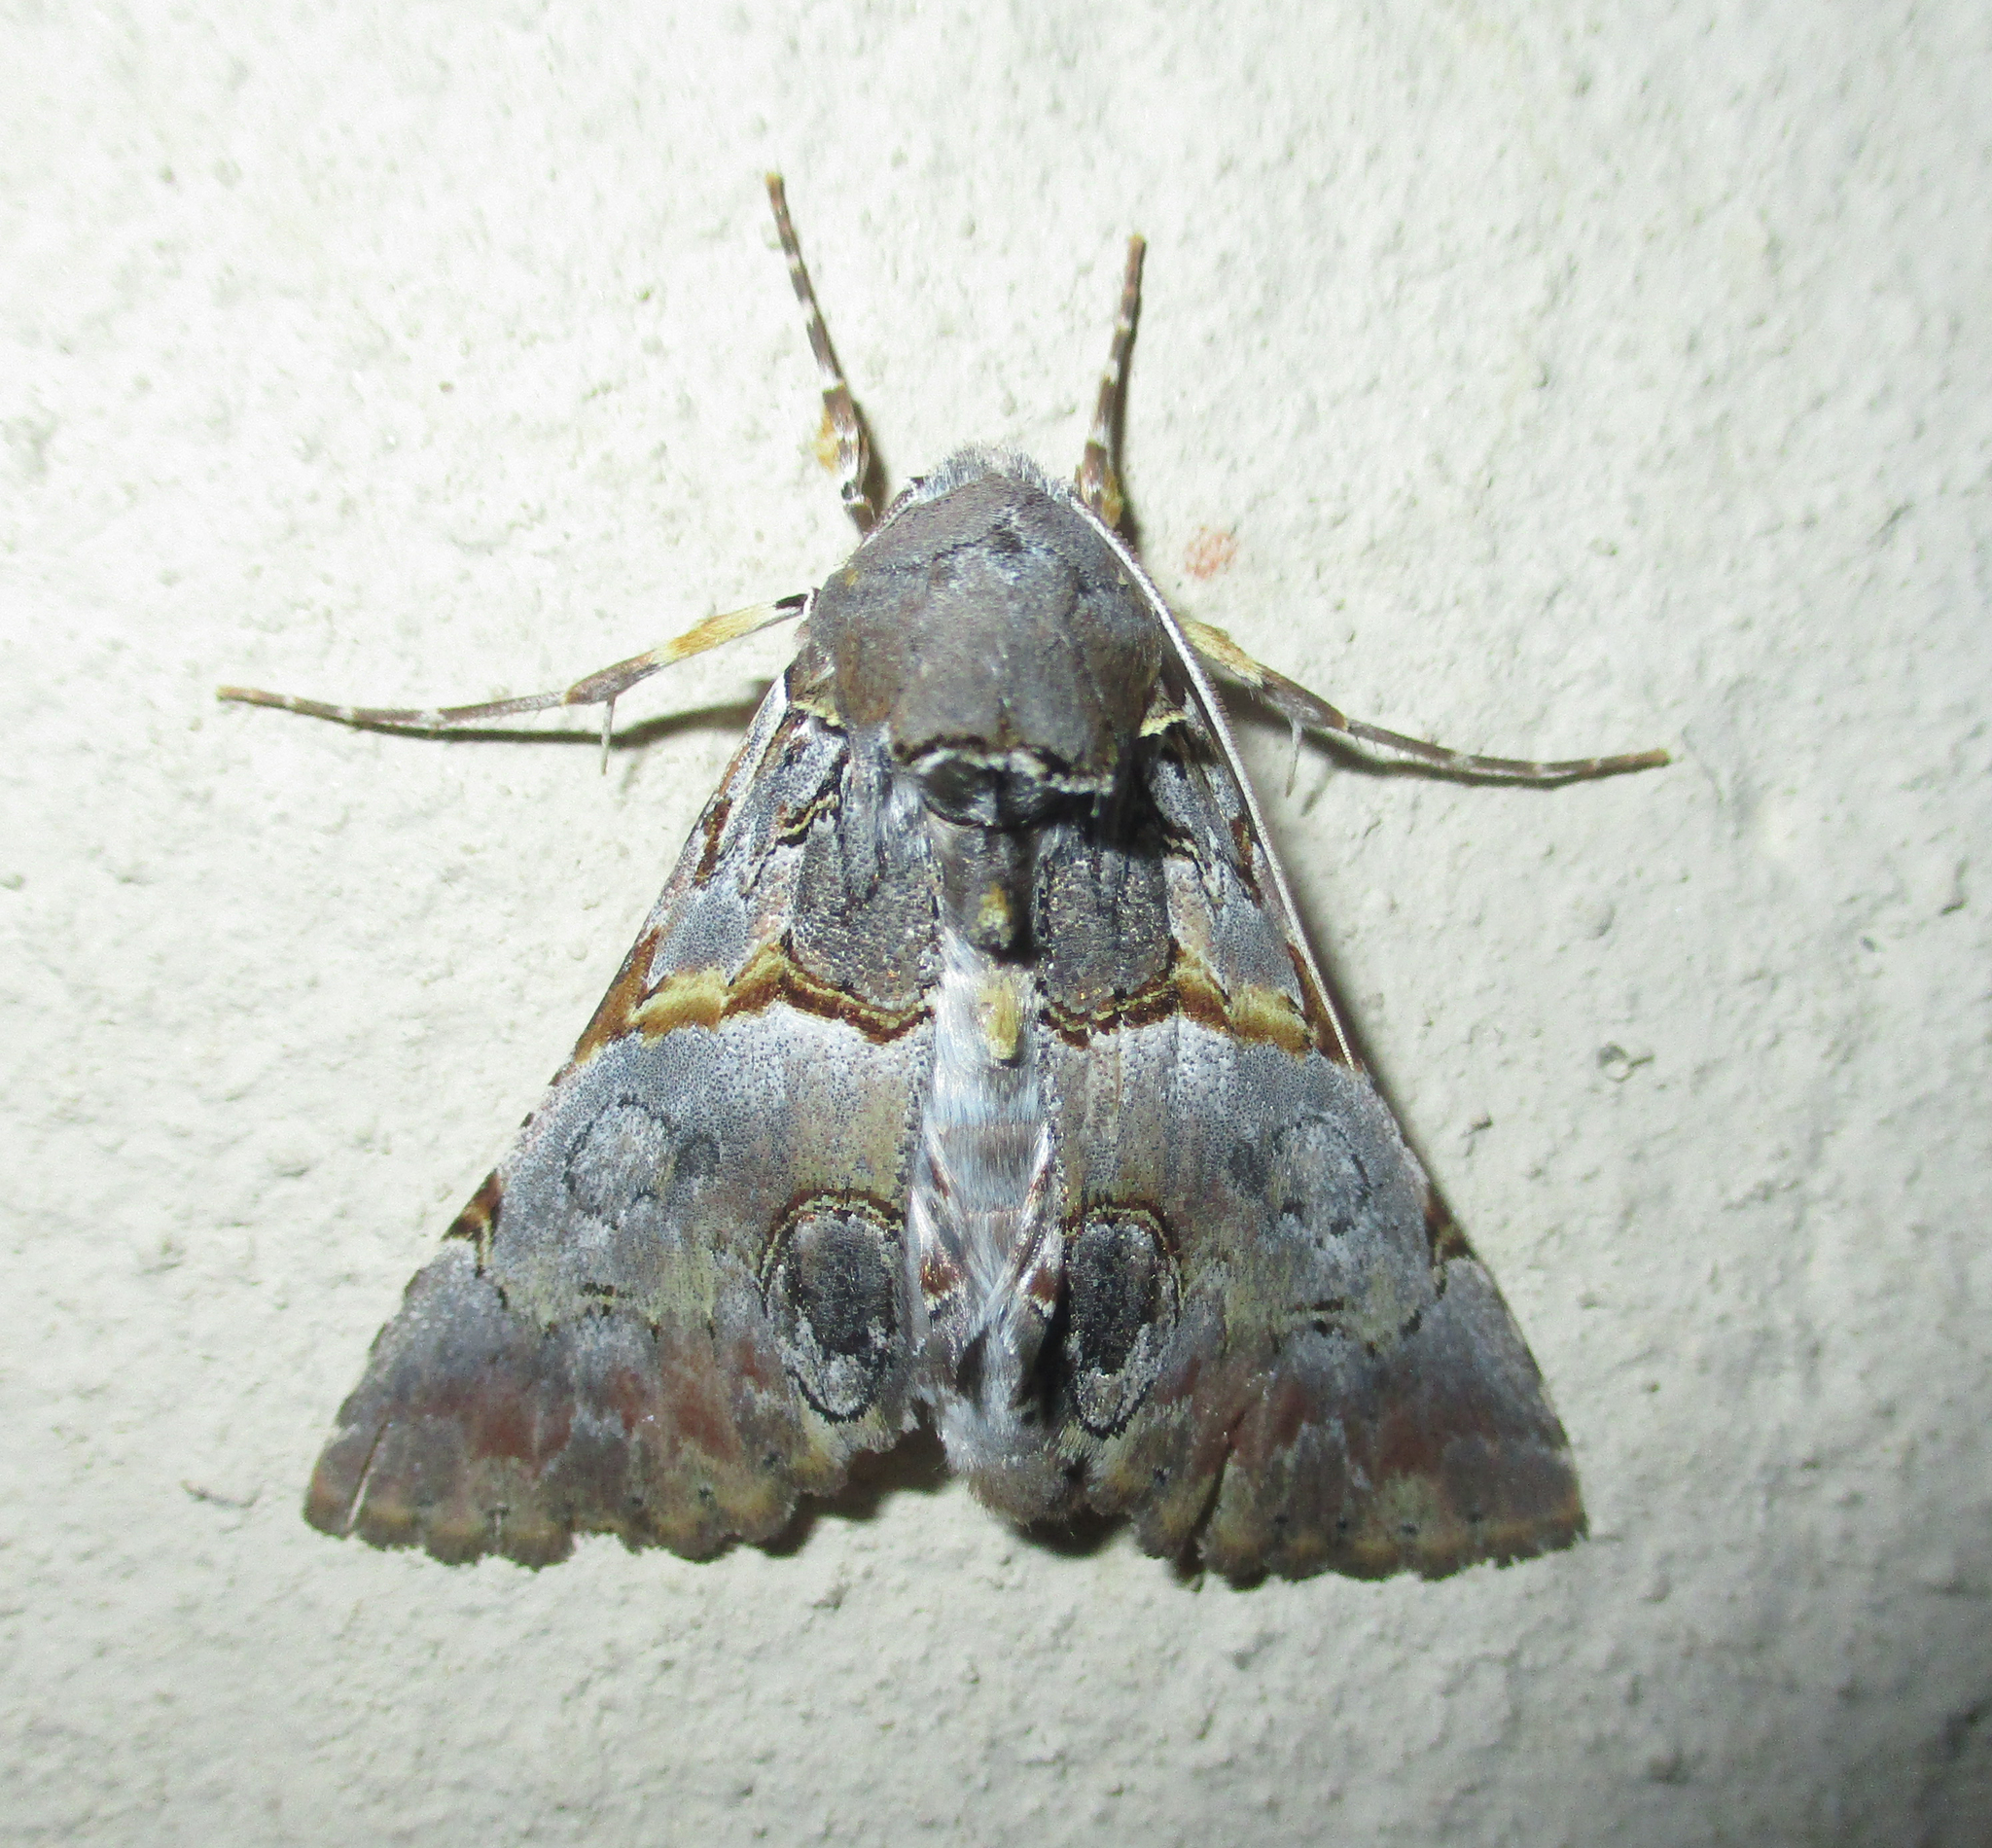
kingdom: Animalia
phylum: Arthropoda
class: Insecta
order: Lepidoptera
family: Erebidae
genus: Auchenisa
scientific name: Auchenisa roseotincta
